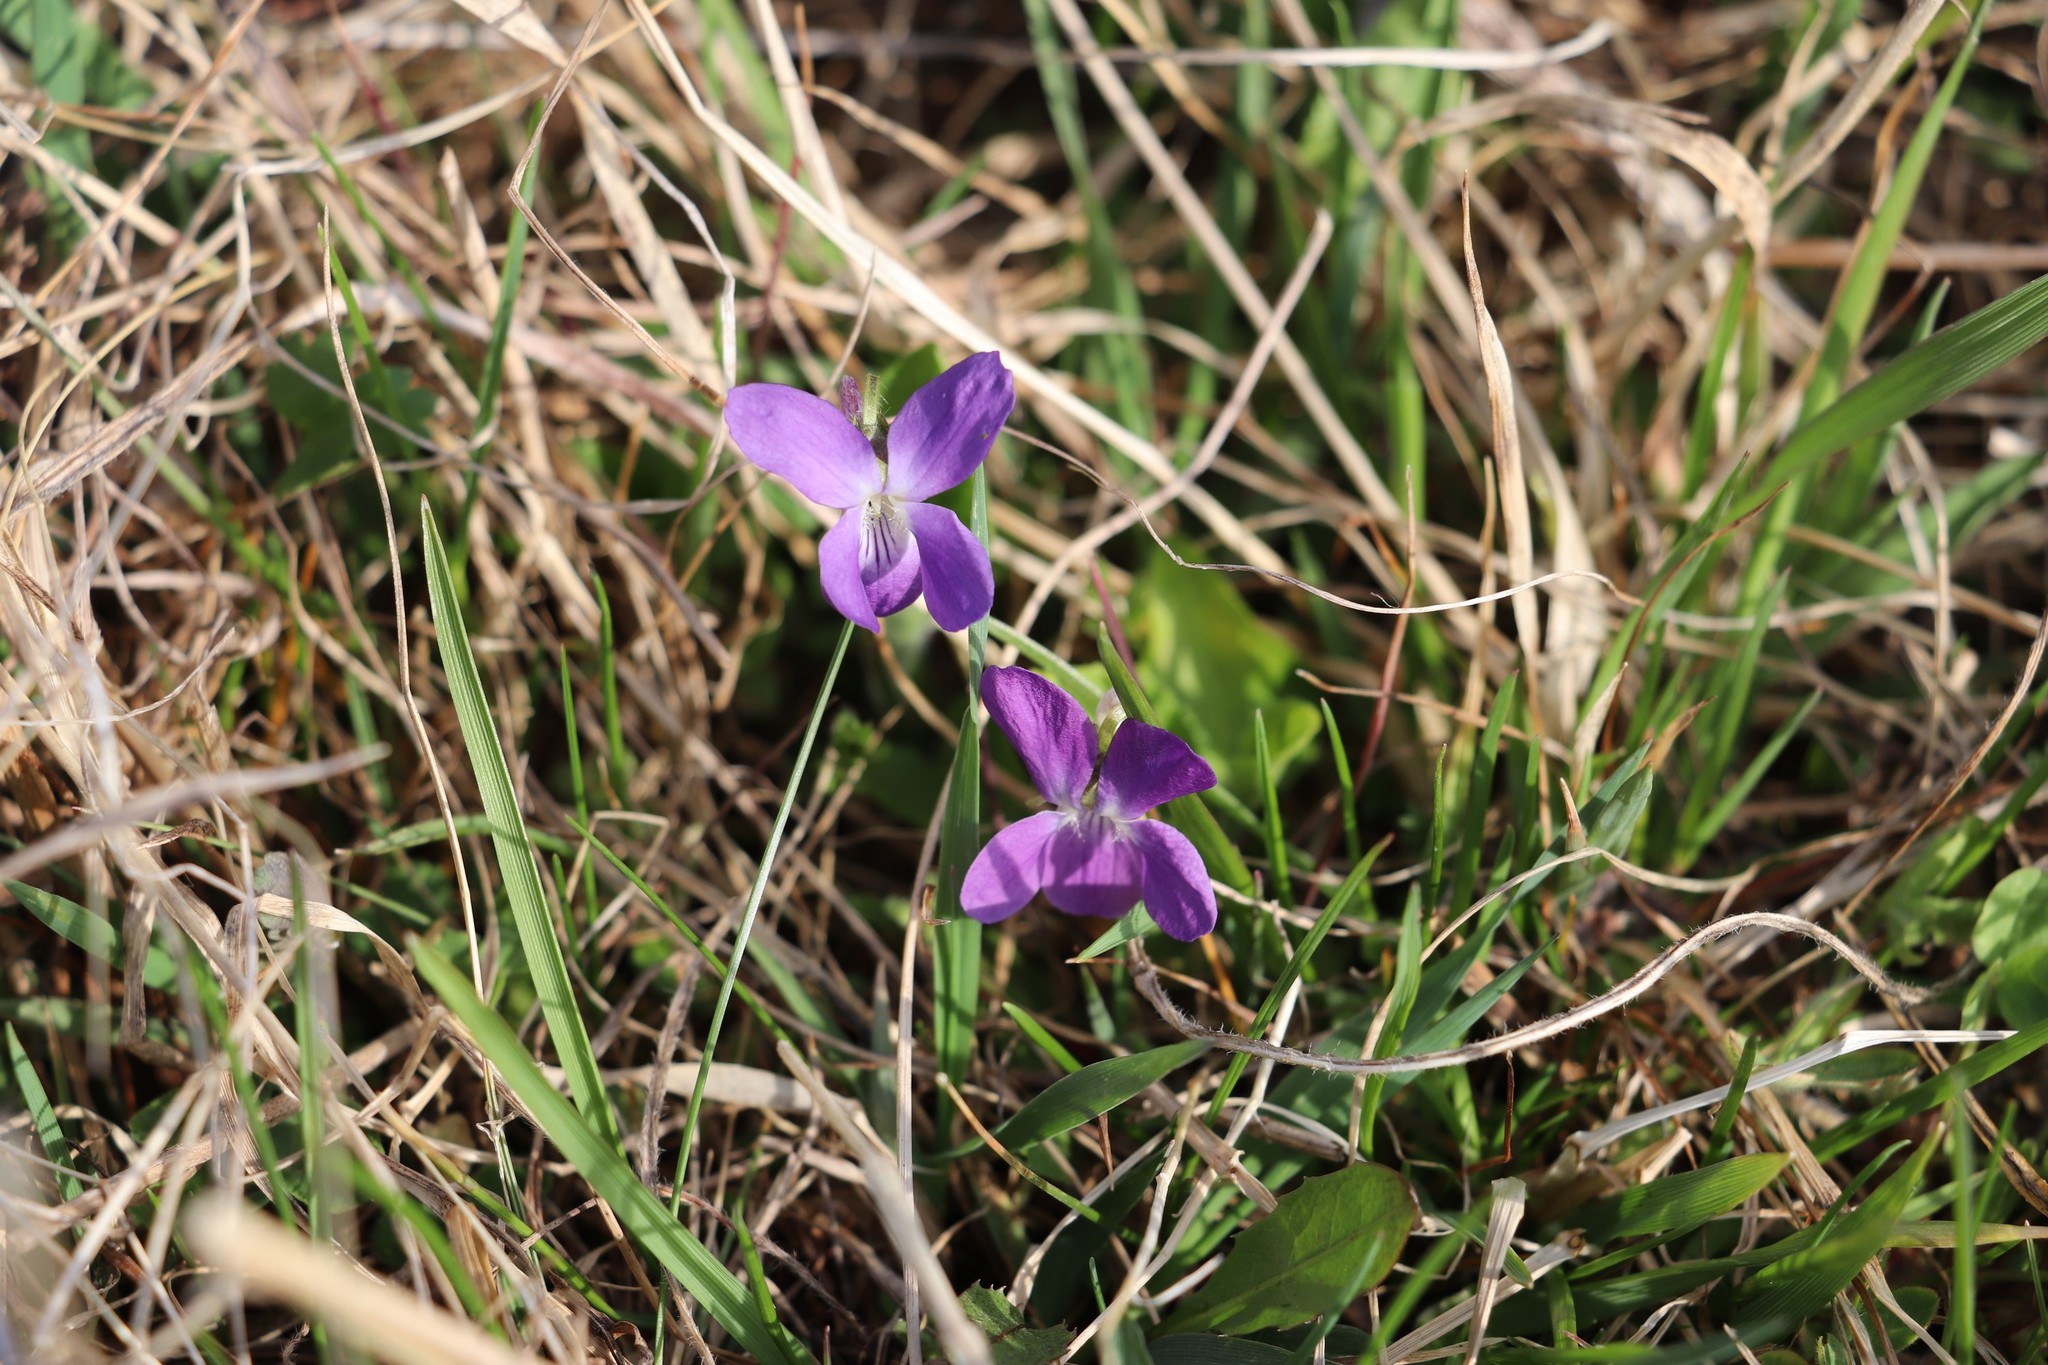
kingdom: Plantae
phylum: Tracheophyta
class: Magnoliopsida
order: Malpighiales
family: Violaceae
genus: Viola
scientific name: Viola hirta
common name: Hairy violet
